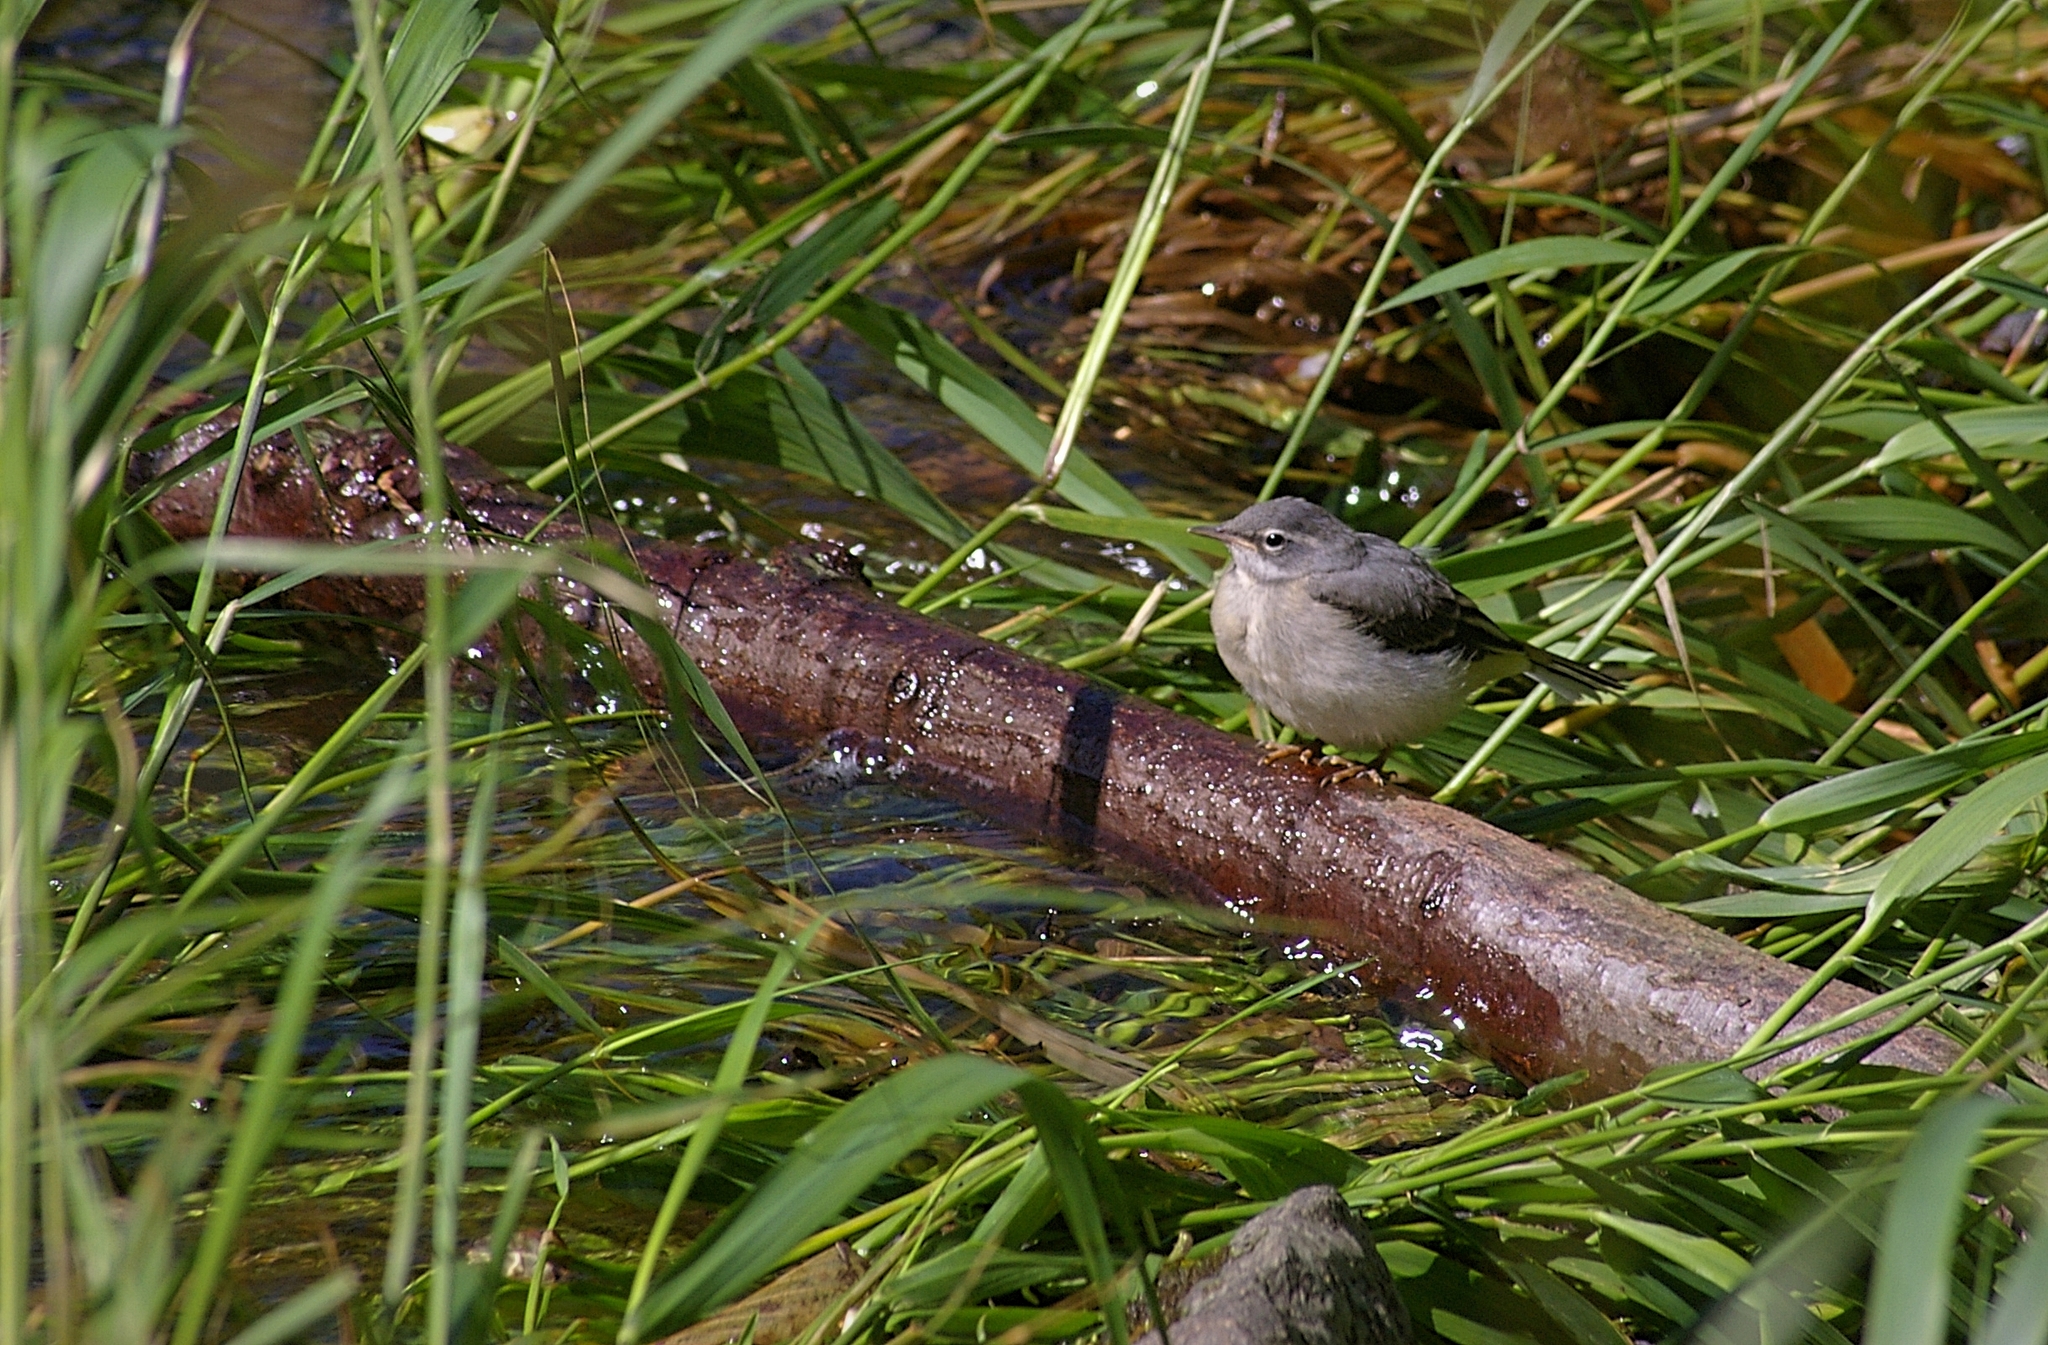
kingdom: Animalia
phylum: Chordata
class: Aves
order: Passeriformes
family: Motacillidae
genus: Motacilla
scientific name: Motacilla cinerea
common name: Grey wagtail
